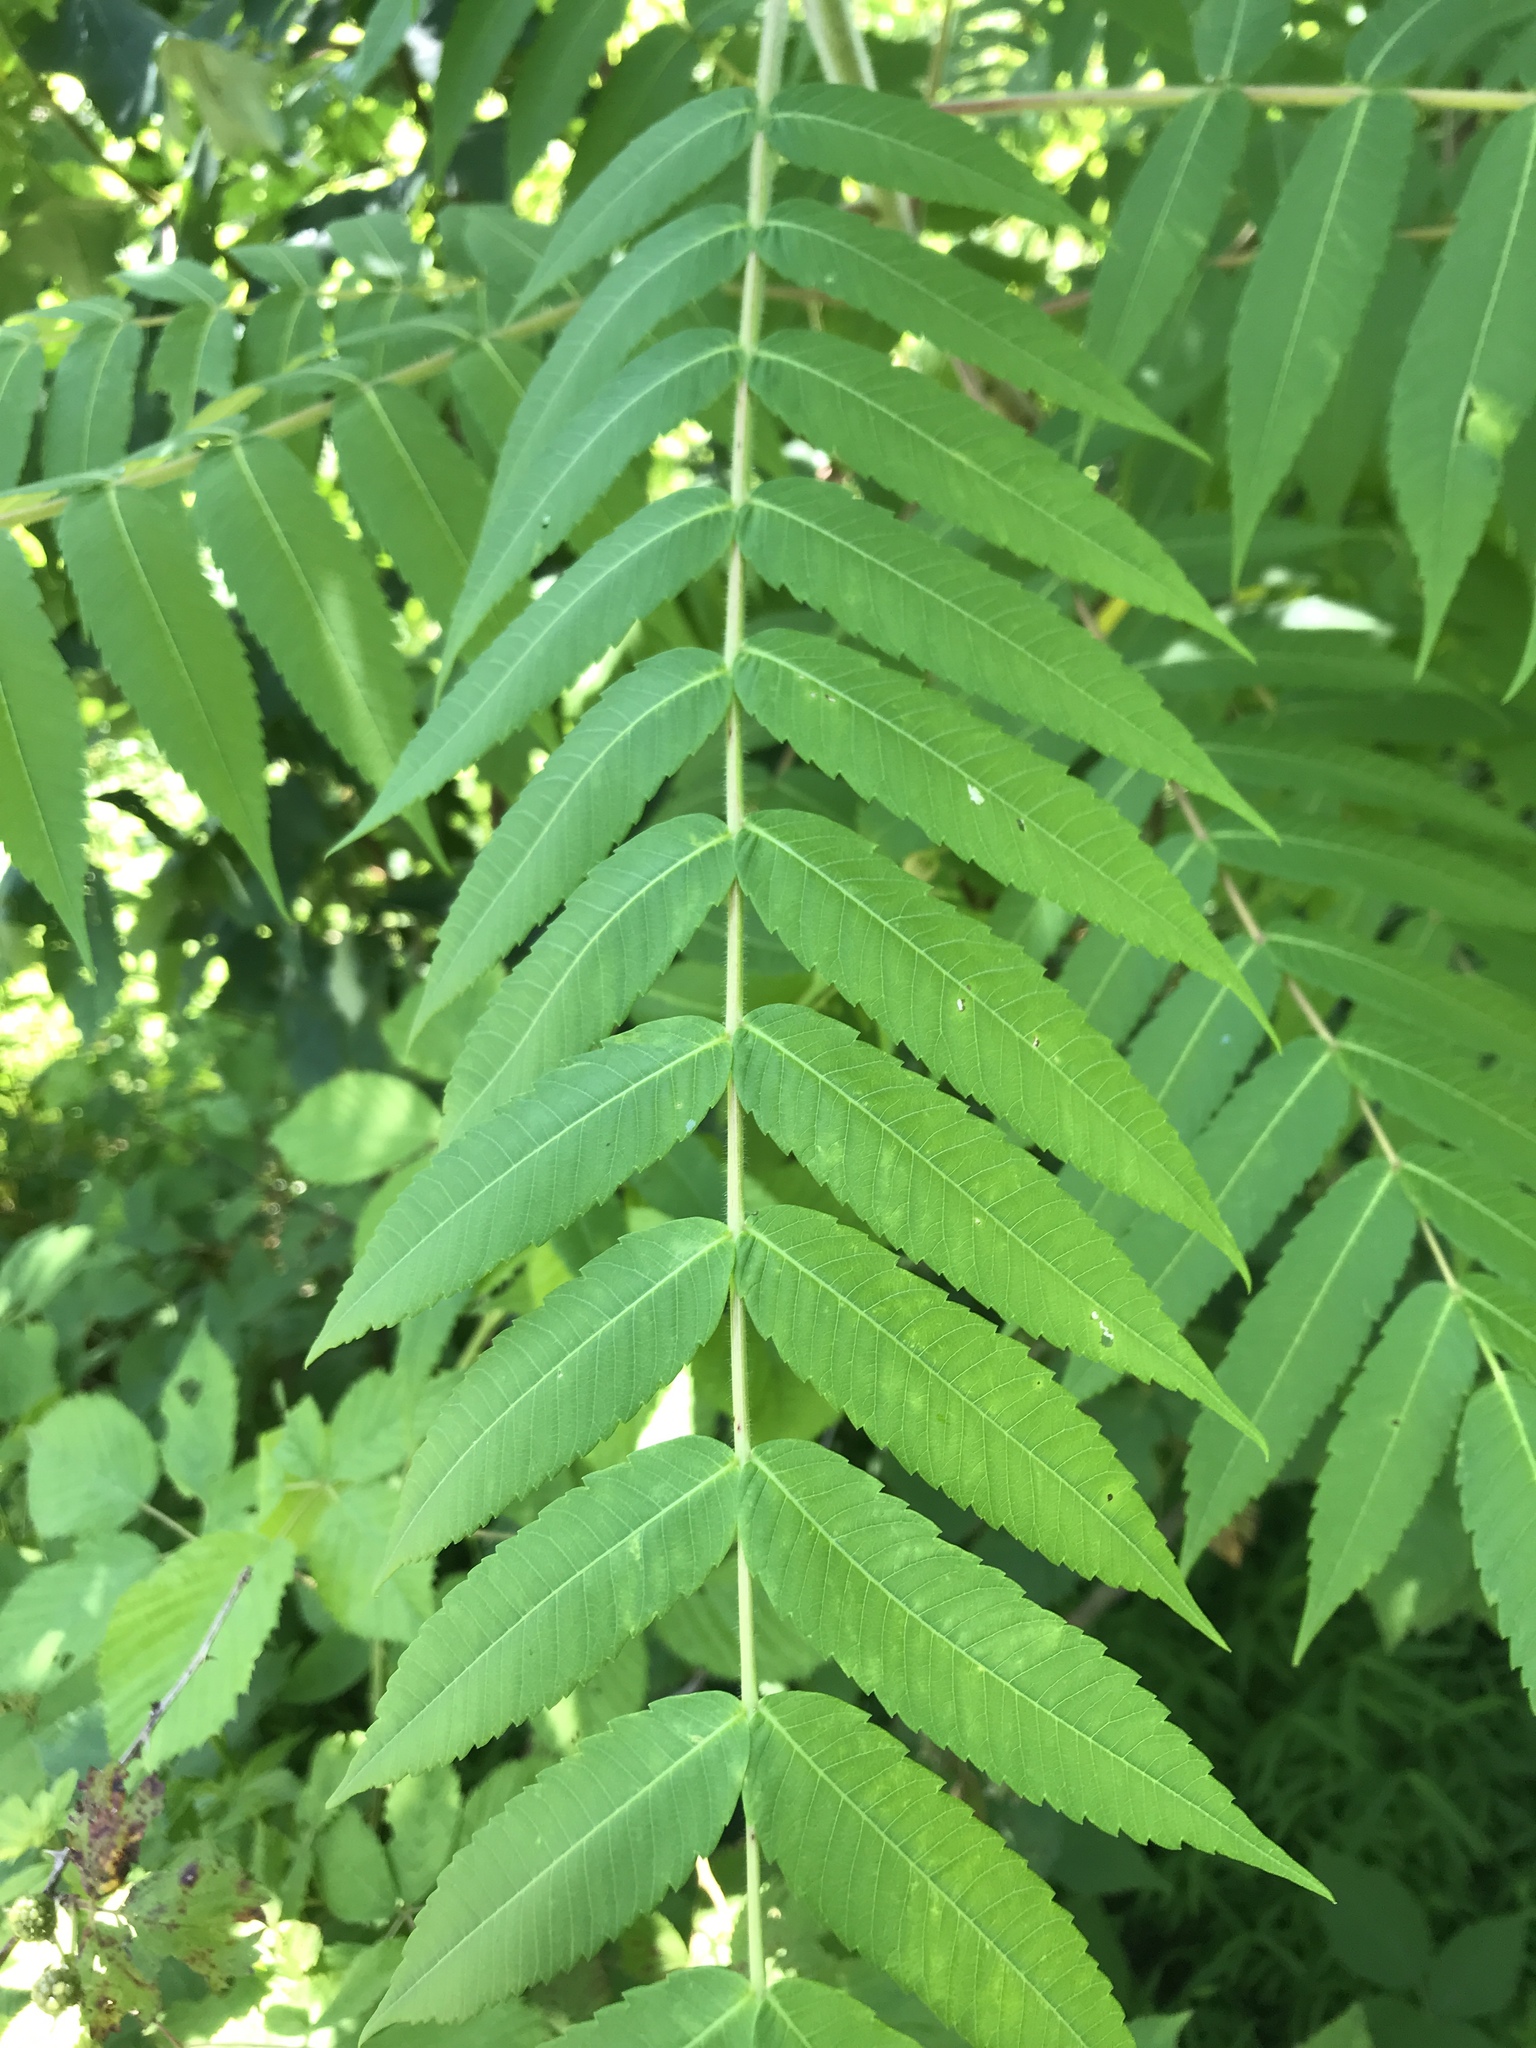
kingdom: Plantae
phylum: Tracheophyta
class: Magnoliopsida
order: Sapindales
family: Anacardiaceae
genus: Rhus
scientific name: Rhus typhina
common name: Staghorn sumac
